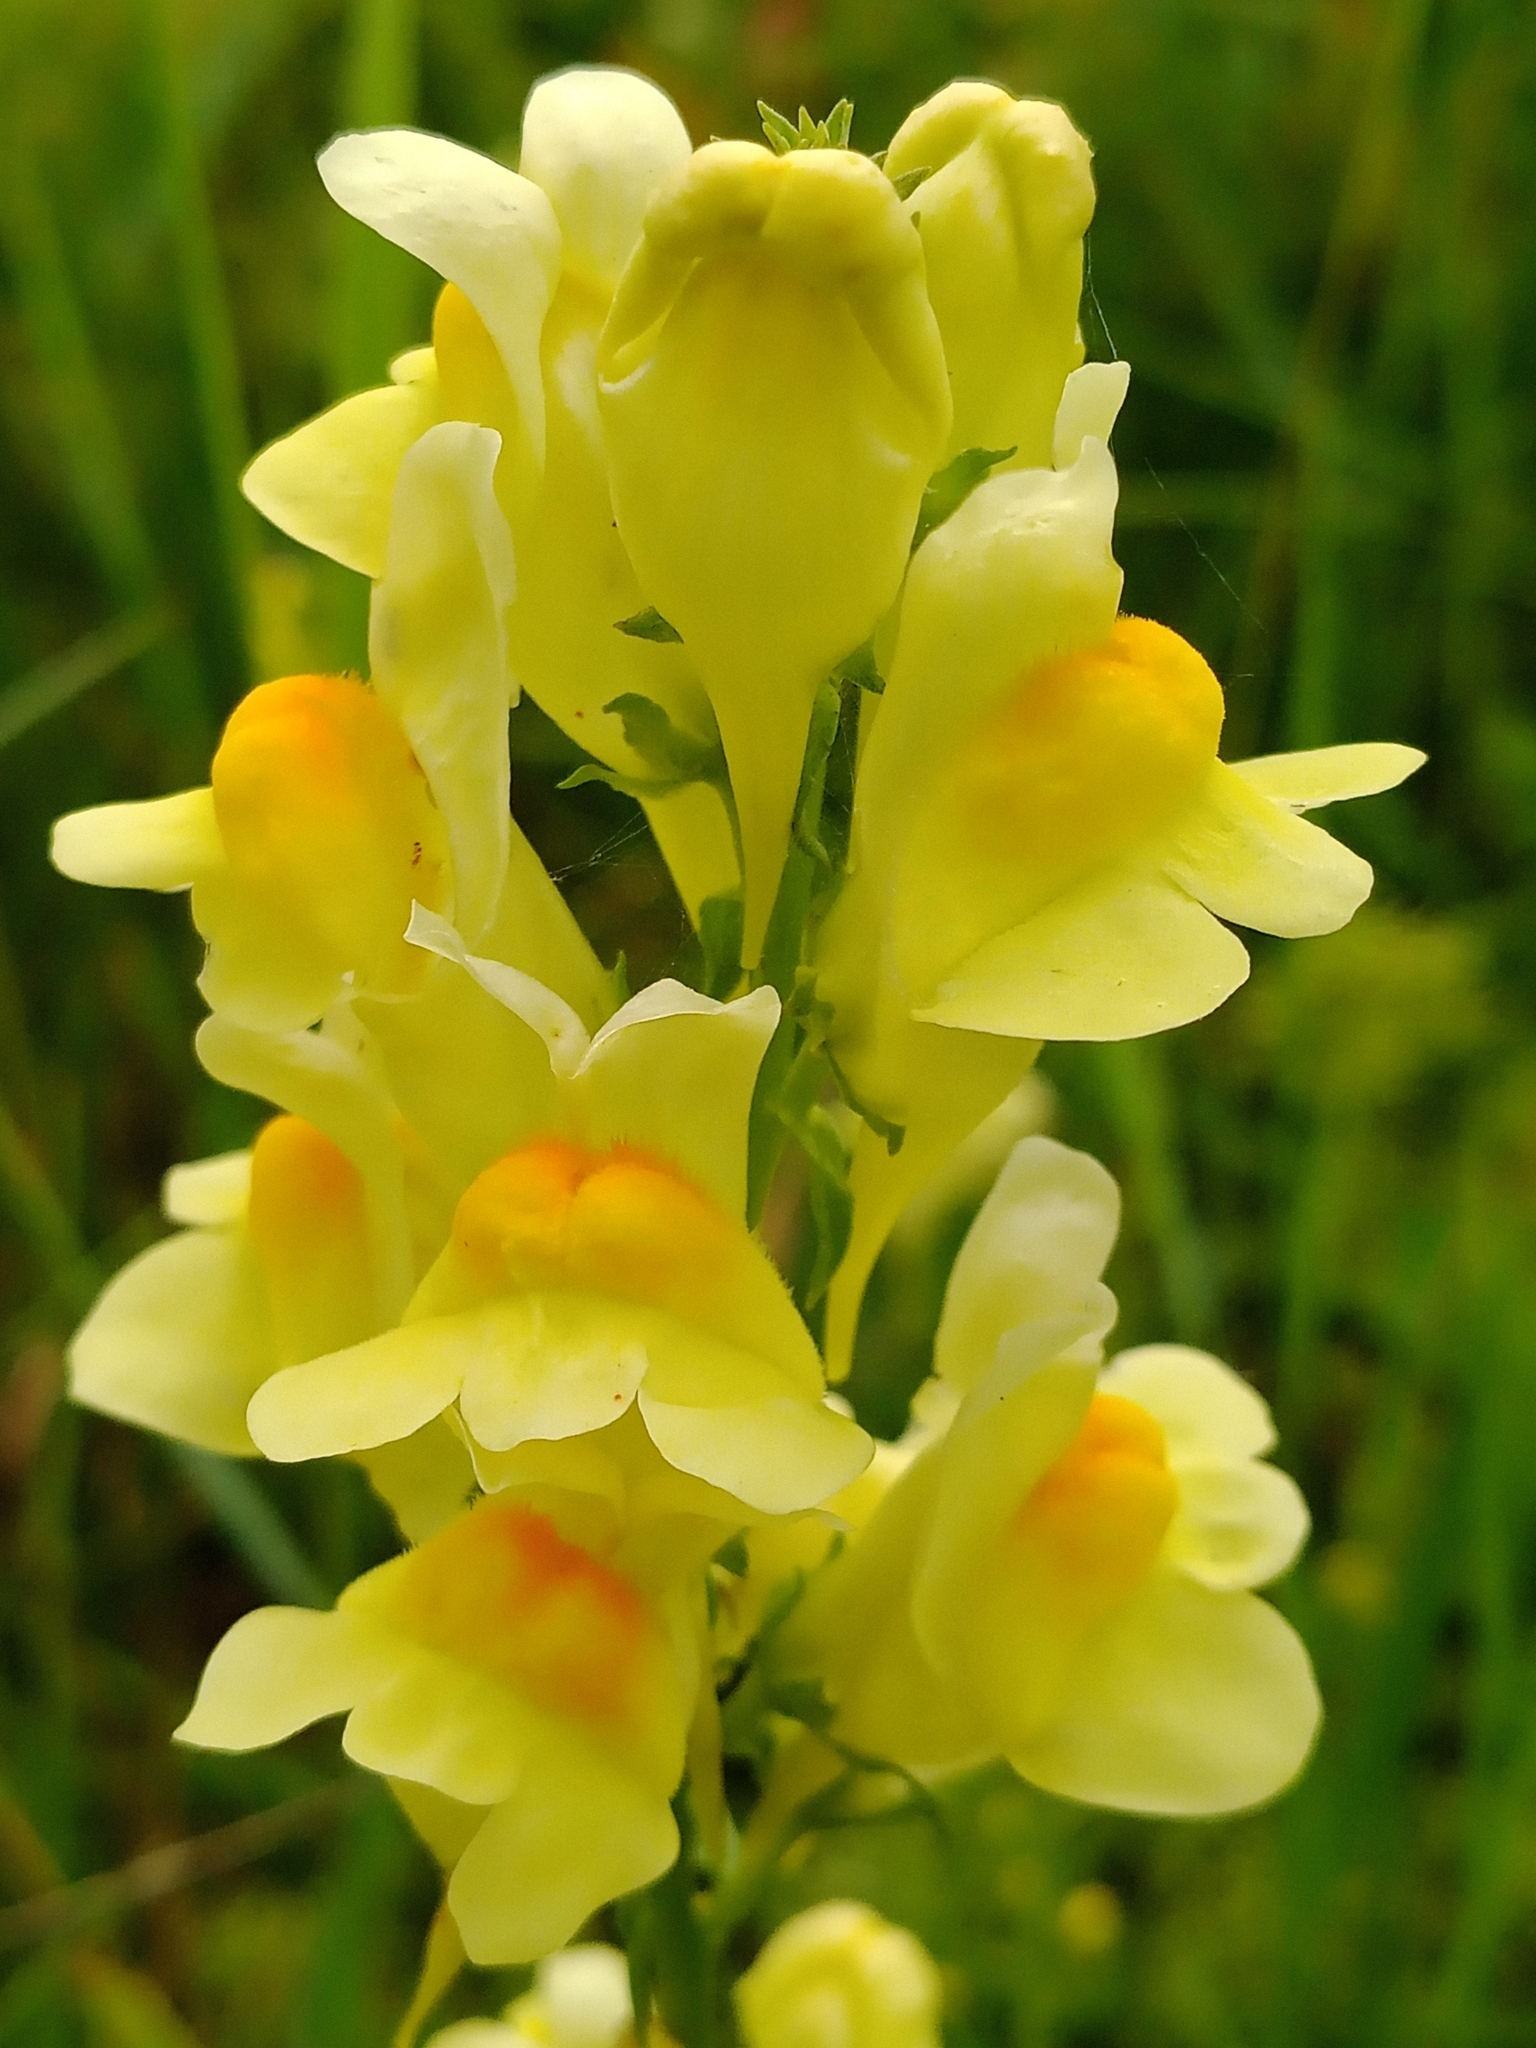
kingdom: Plantae
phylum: Tracheophyta
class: Magnoliopsida
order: Lamiales
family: Plantaginaceae
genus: Linaria
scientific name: Linaria vulgaris
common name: Butter and eggs
